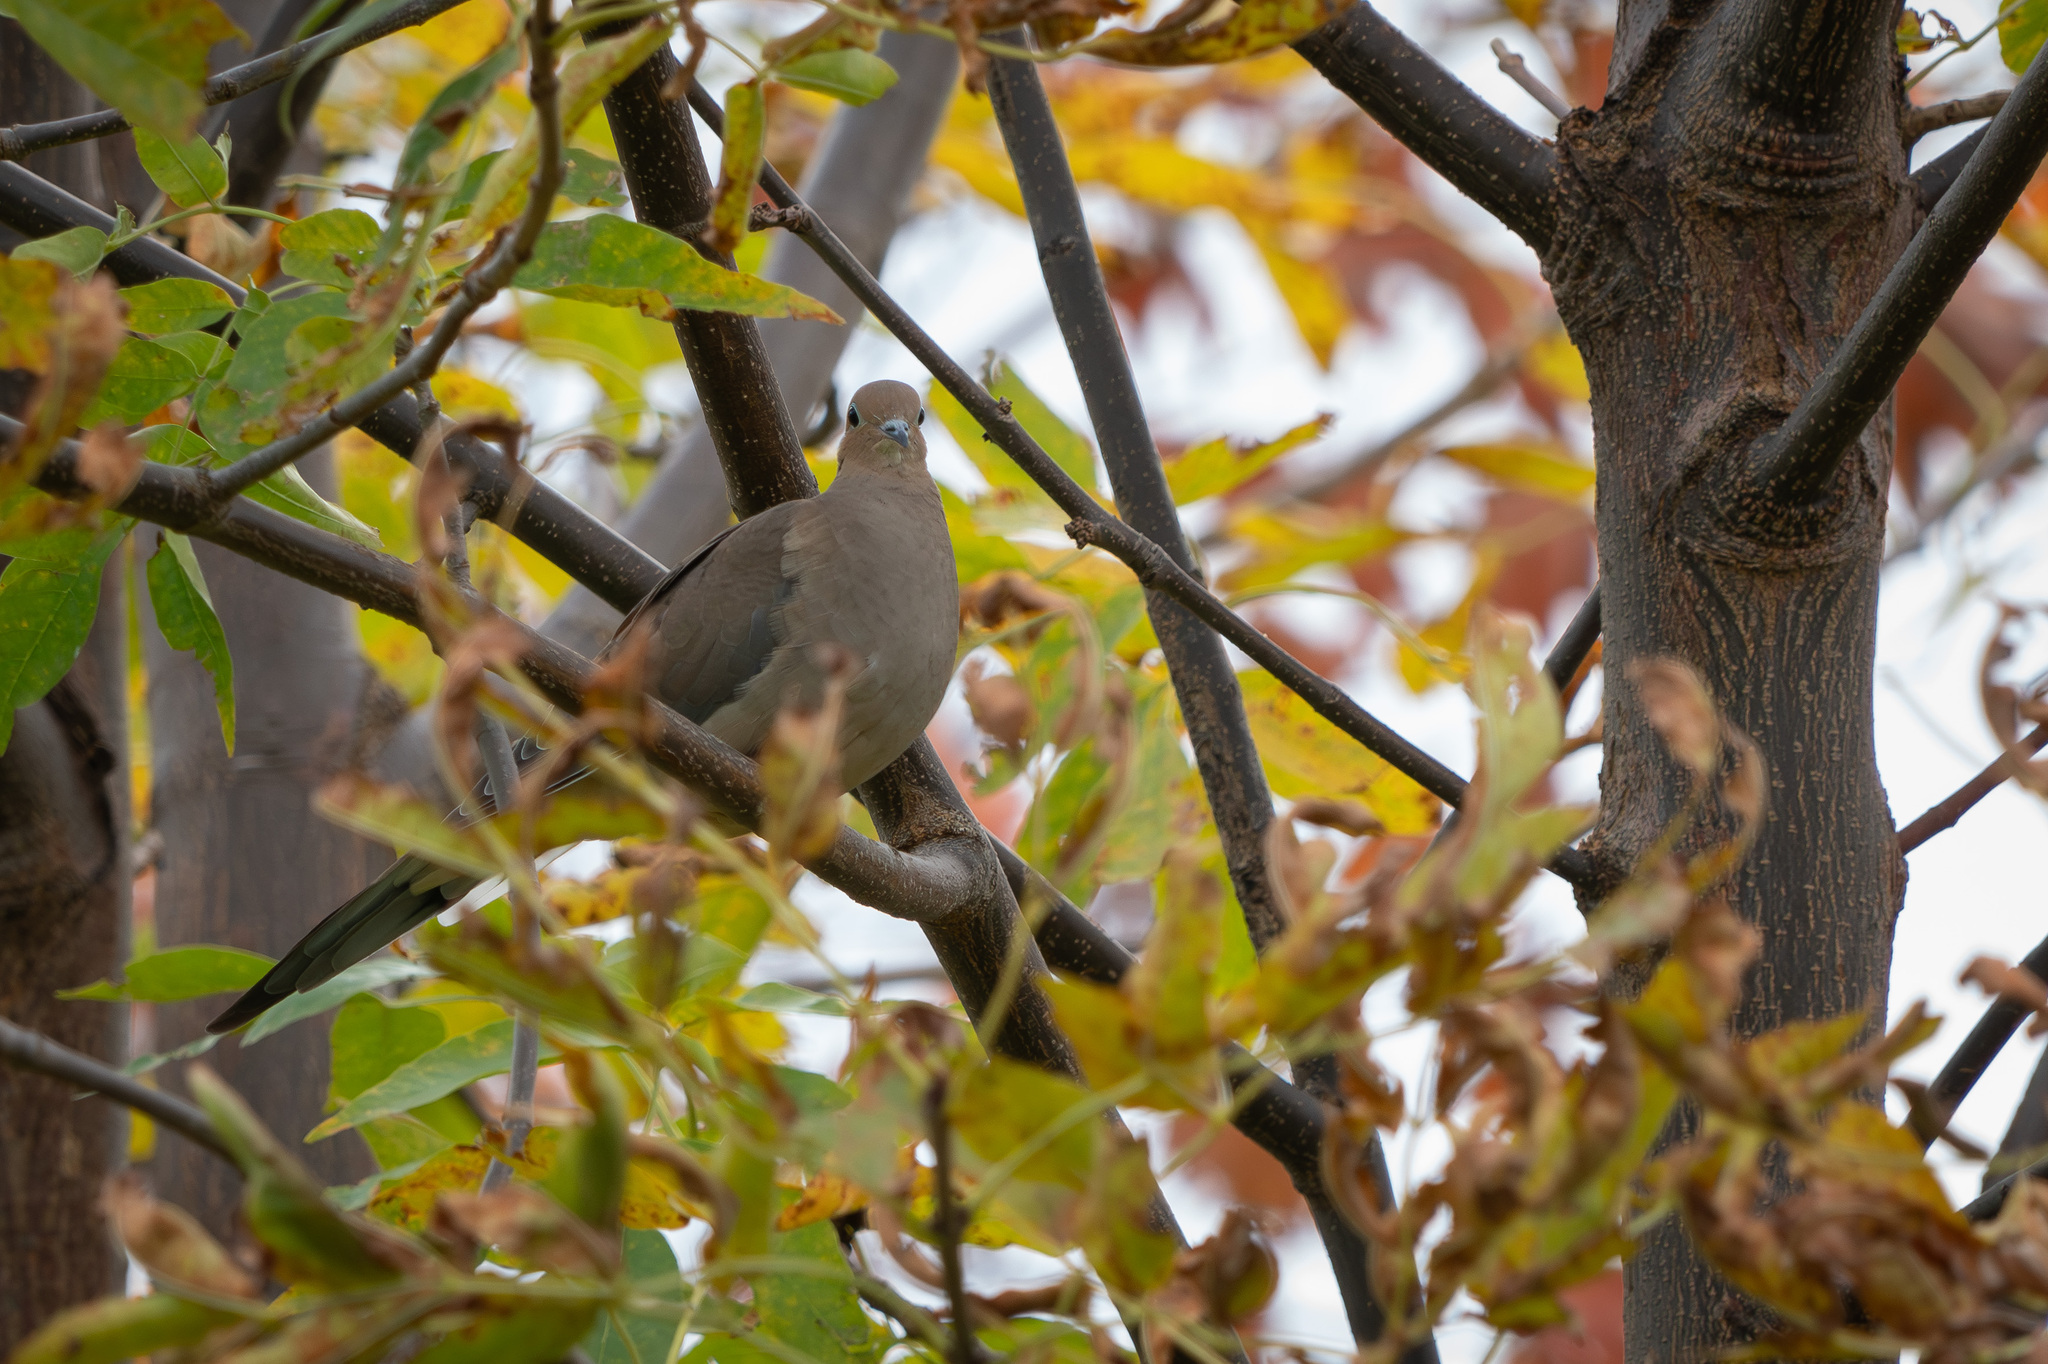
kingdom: Animalia
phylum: Chordata
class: Aves
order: Columbiformes
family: Columbidae
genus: Zenaida
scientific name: Zenaida macroura
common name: Mourning dove
